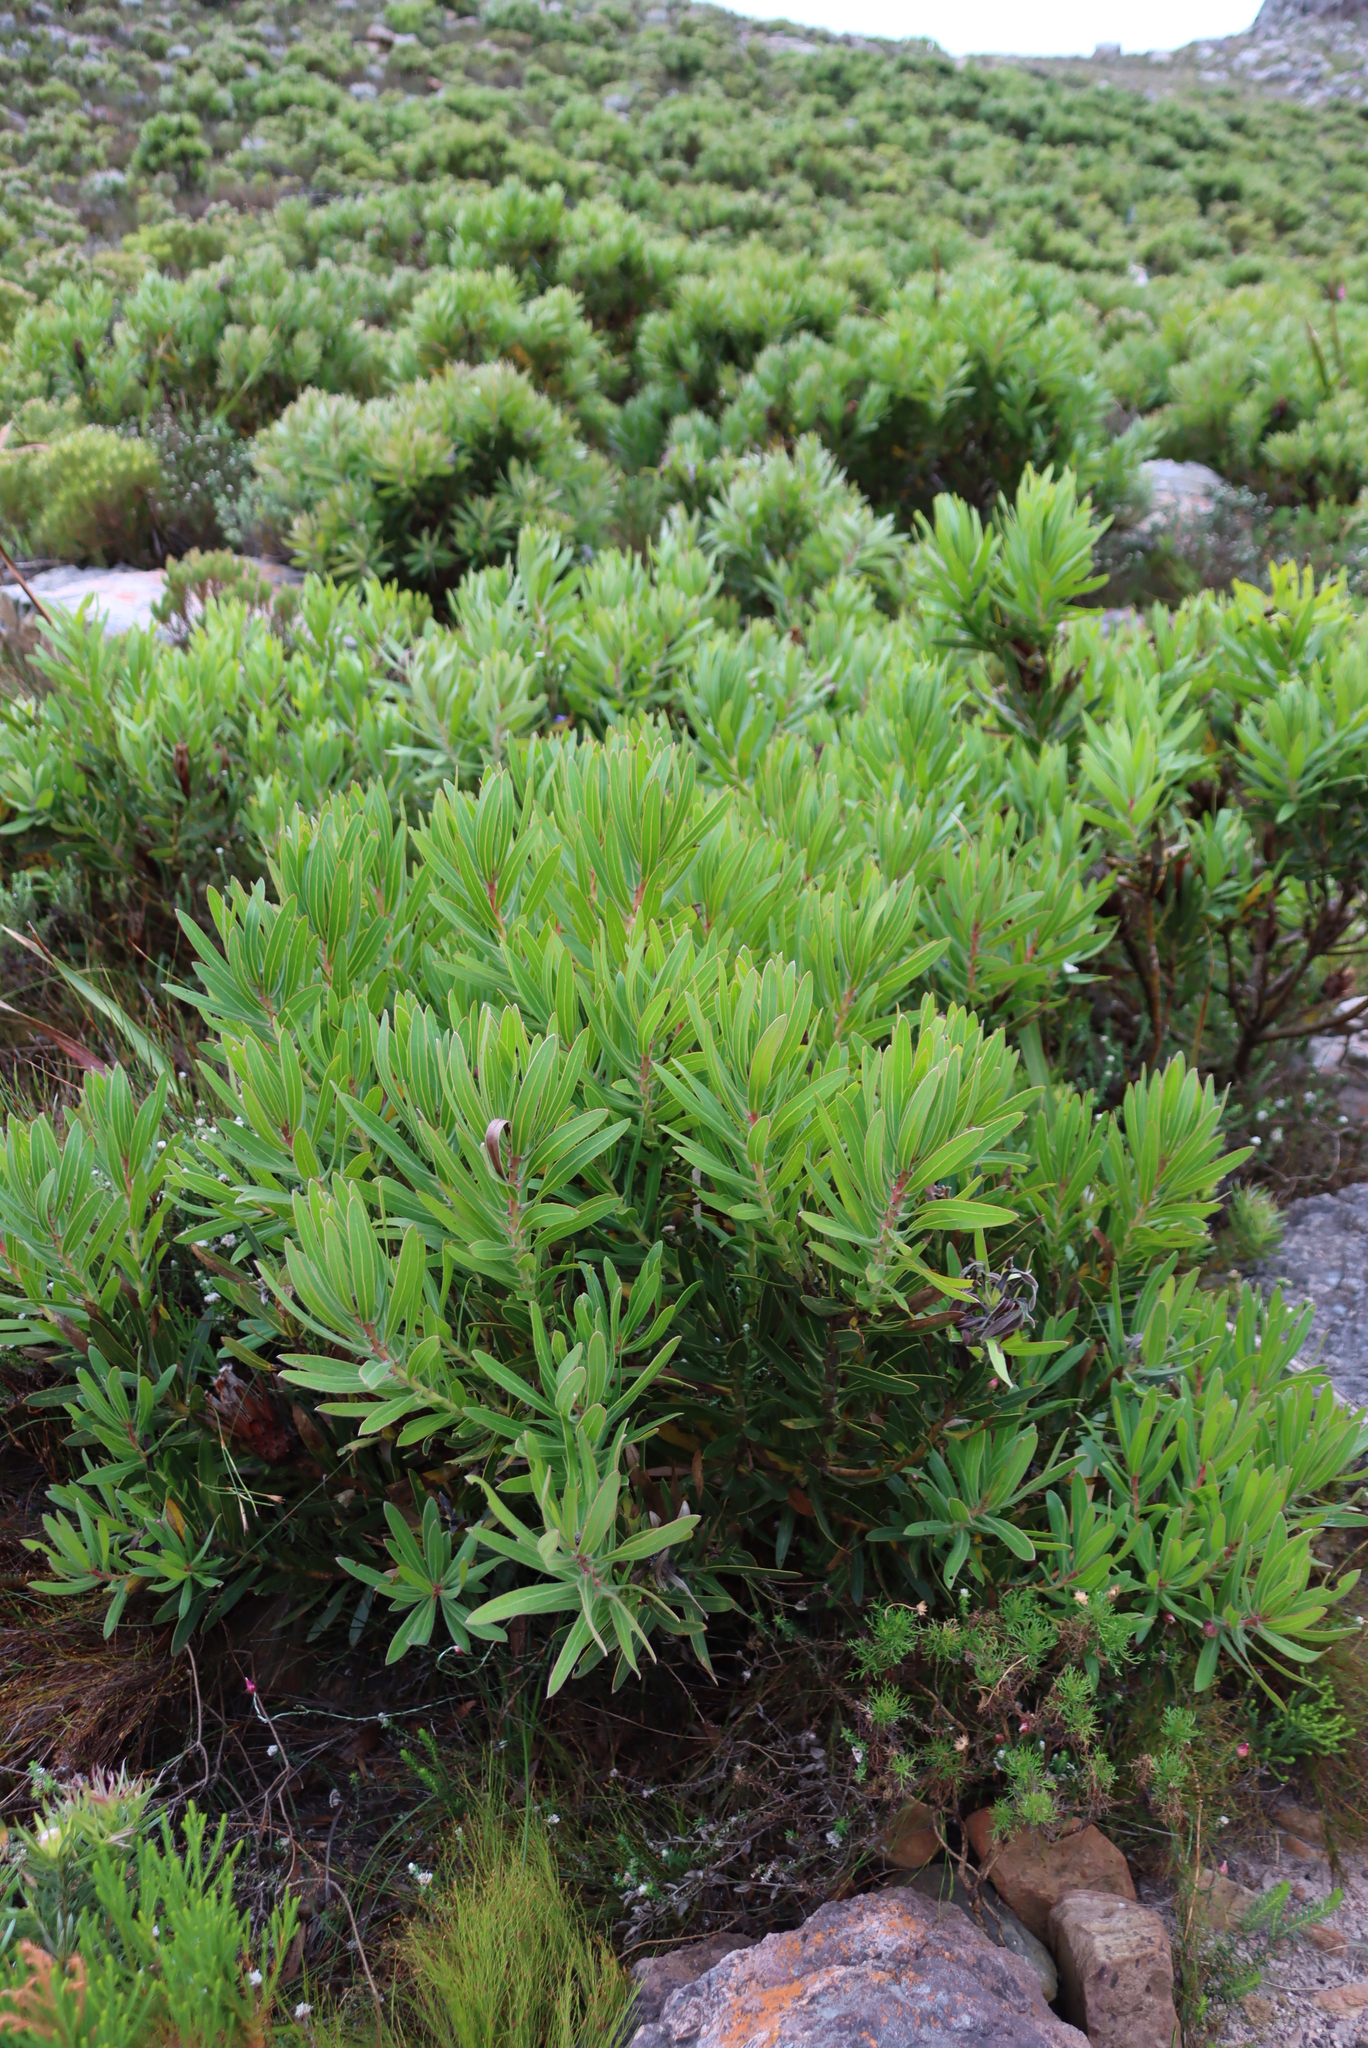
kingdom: Plantae
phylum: Tracheophyta
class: Magnoliopsida
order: Proteales
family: Proteaceae
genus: Protea
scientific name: Protea lepidocarpodendron
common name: Black-bearded protea
